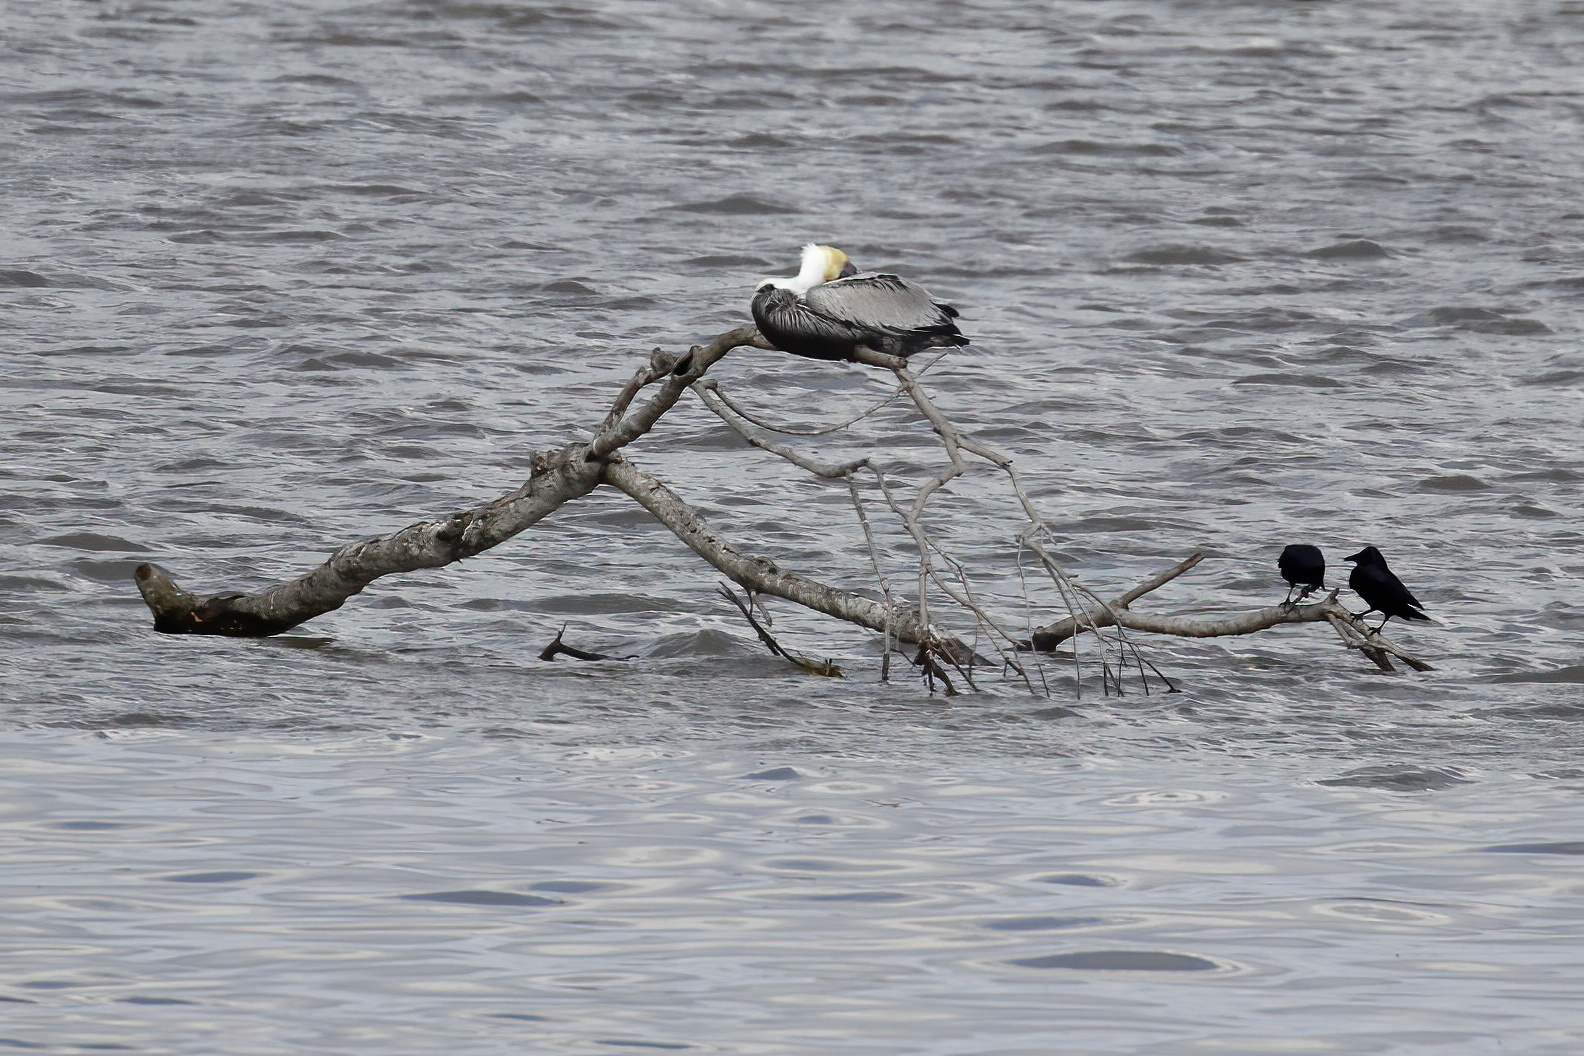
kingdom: Animalia
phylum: Chordata
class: Aves
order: Pelecaniformes
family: Pelecanidae
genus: Pelecanus
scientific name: Pelecanus occidentalis
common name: Brown pelican
